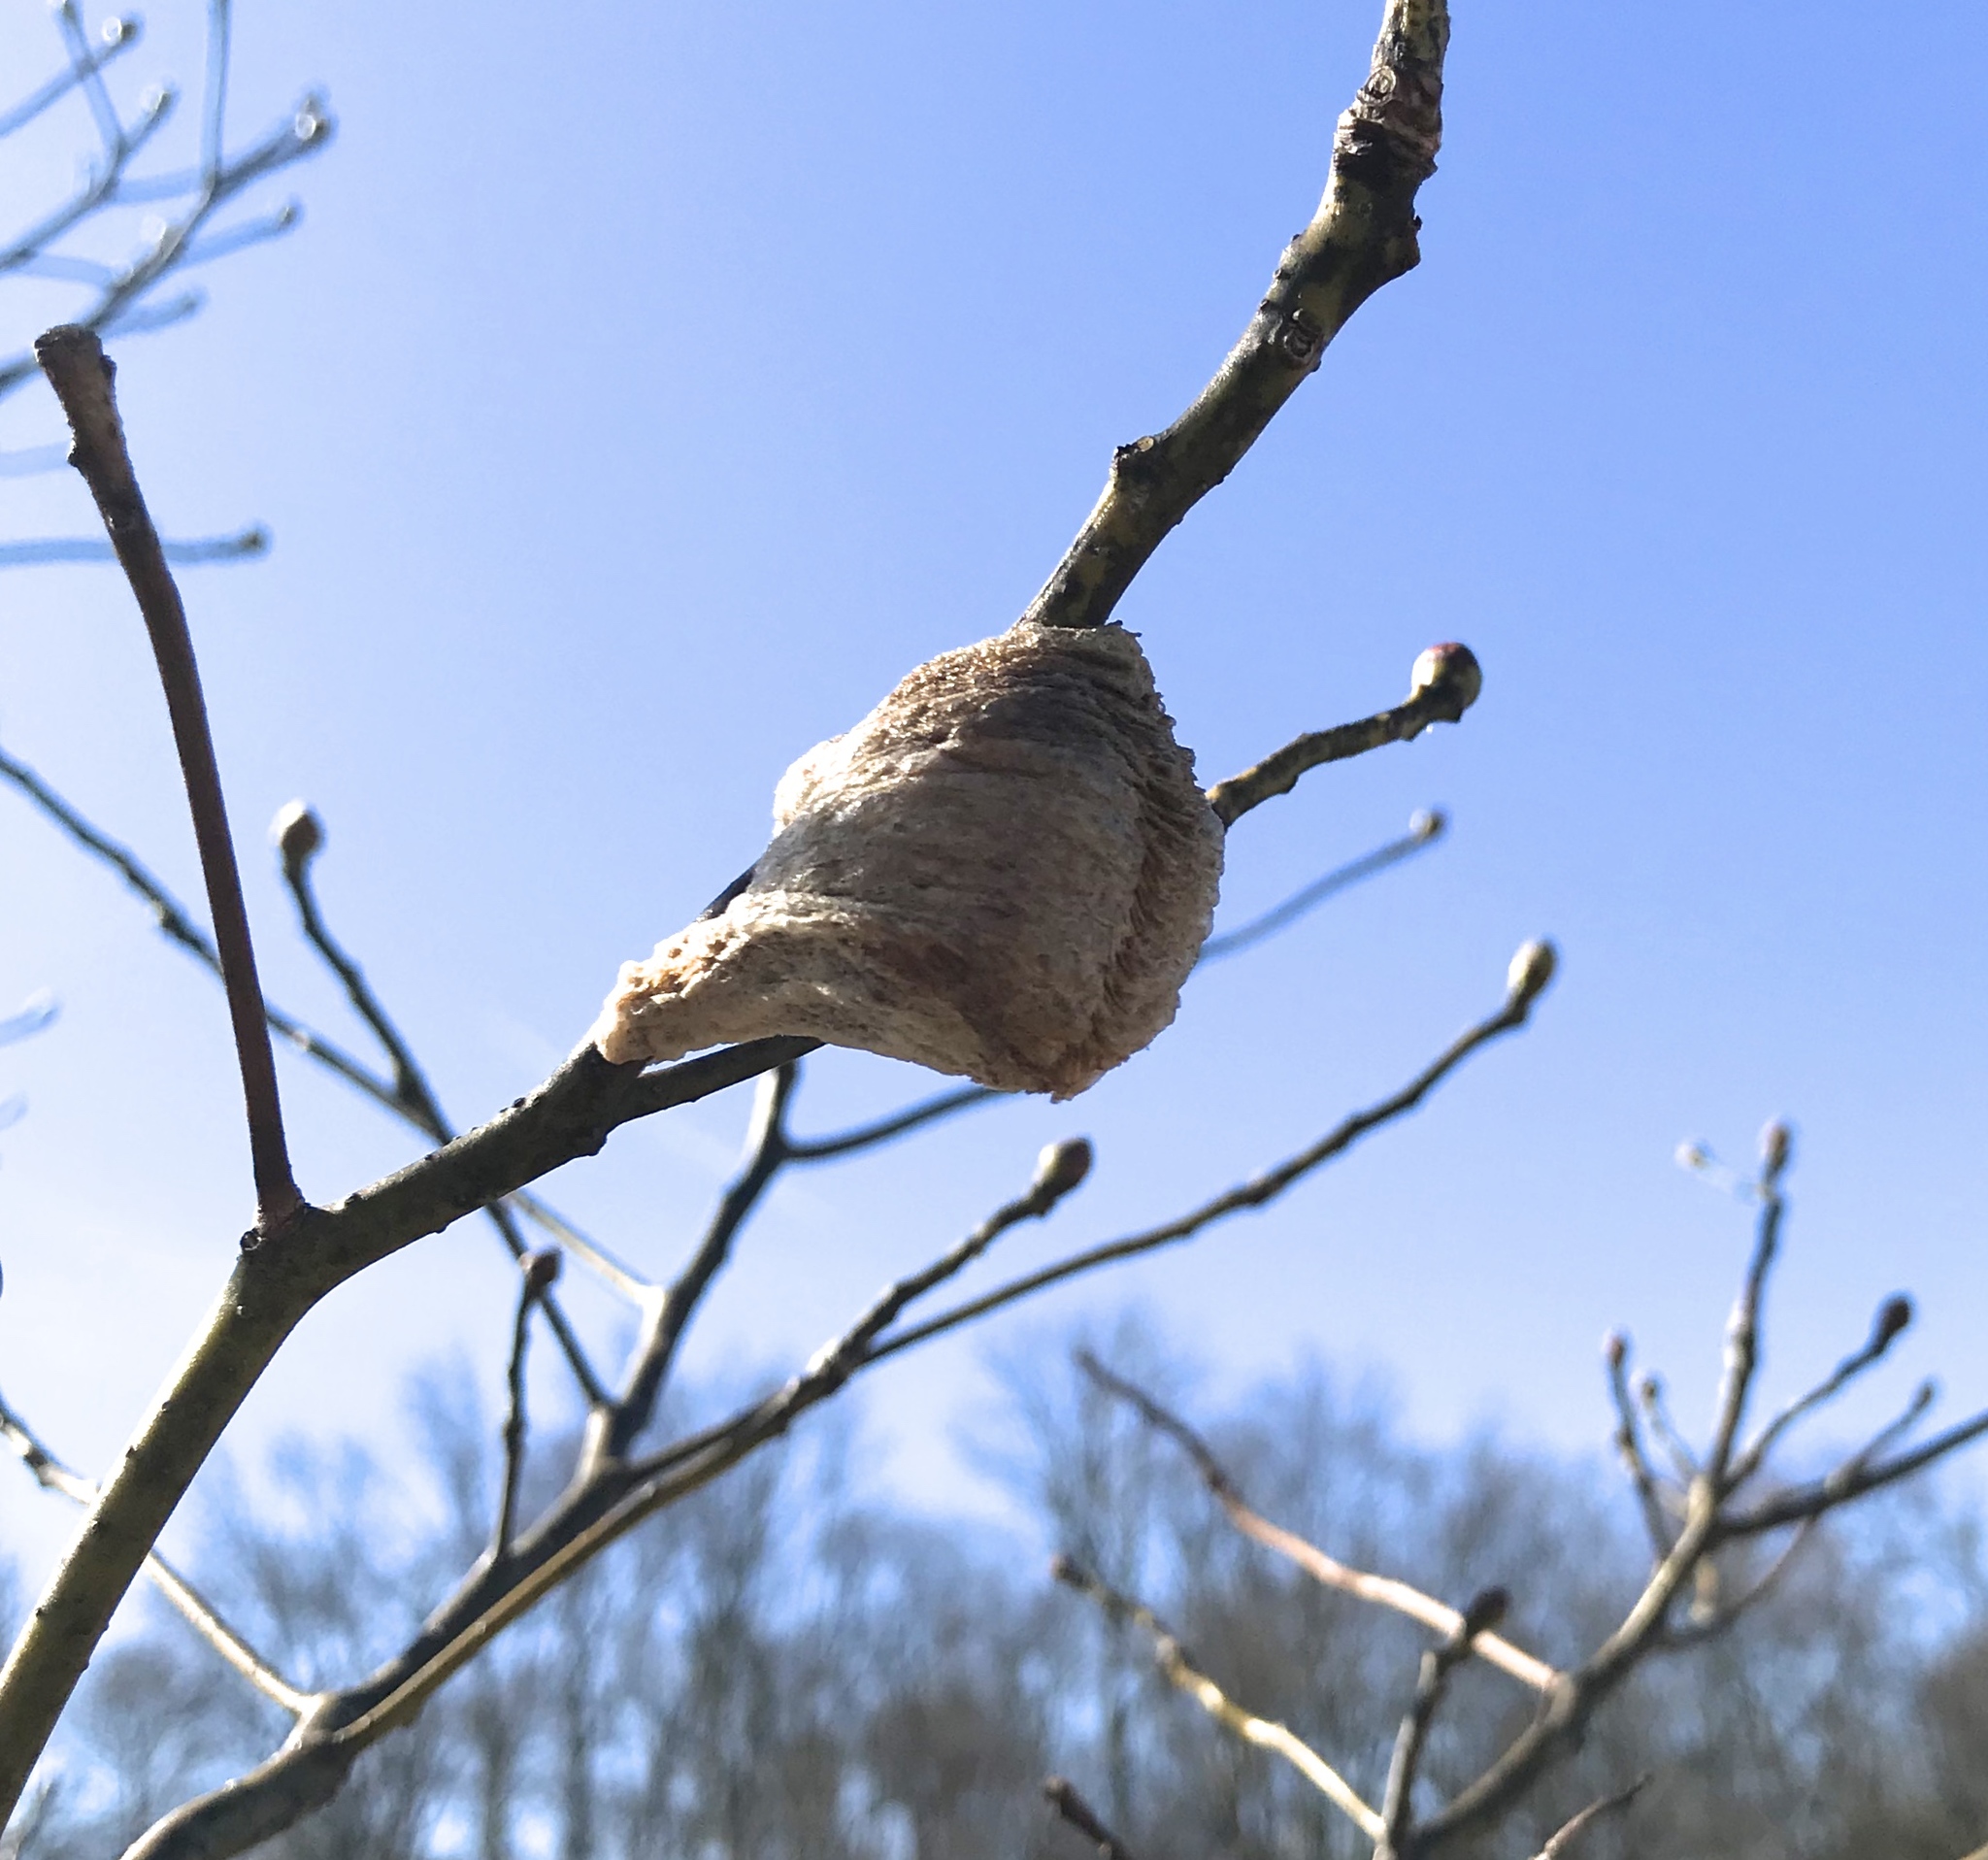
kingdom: Animalia
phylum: Arthropoda
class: Insecta
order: Mantodea
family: Mantidae
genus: Tenodera
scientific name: Tenodera sinensis
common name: Chinese mantis
